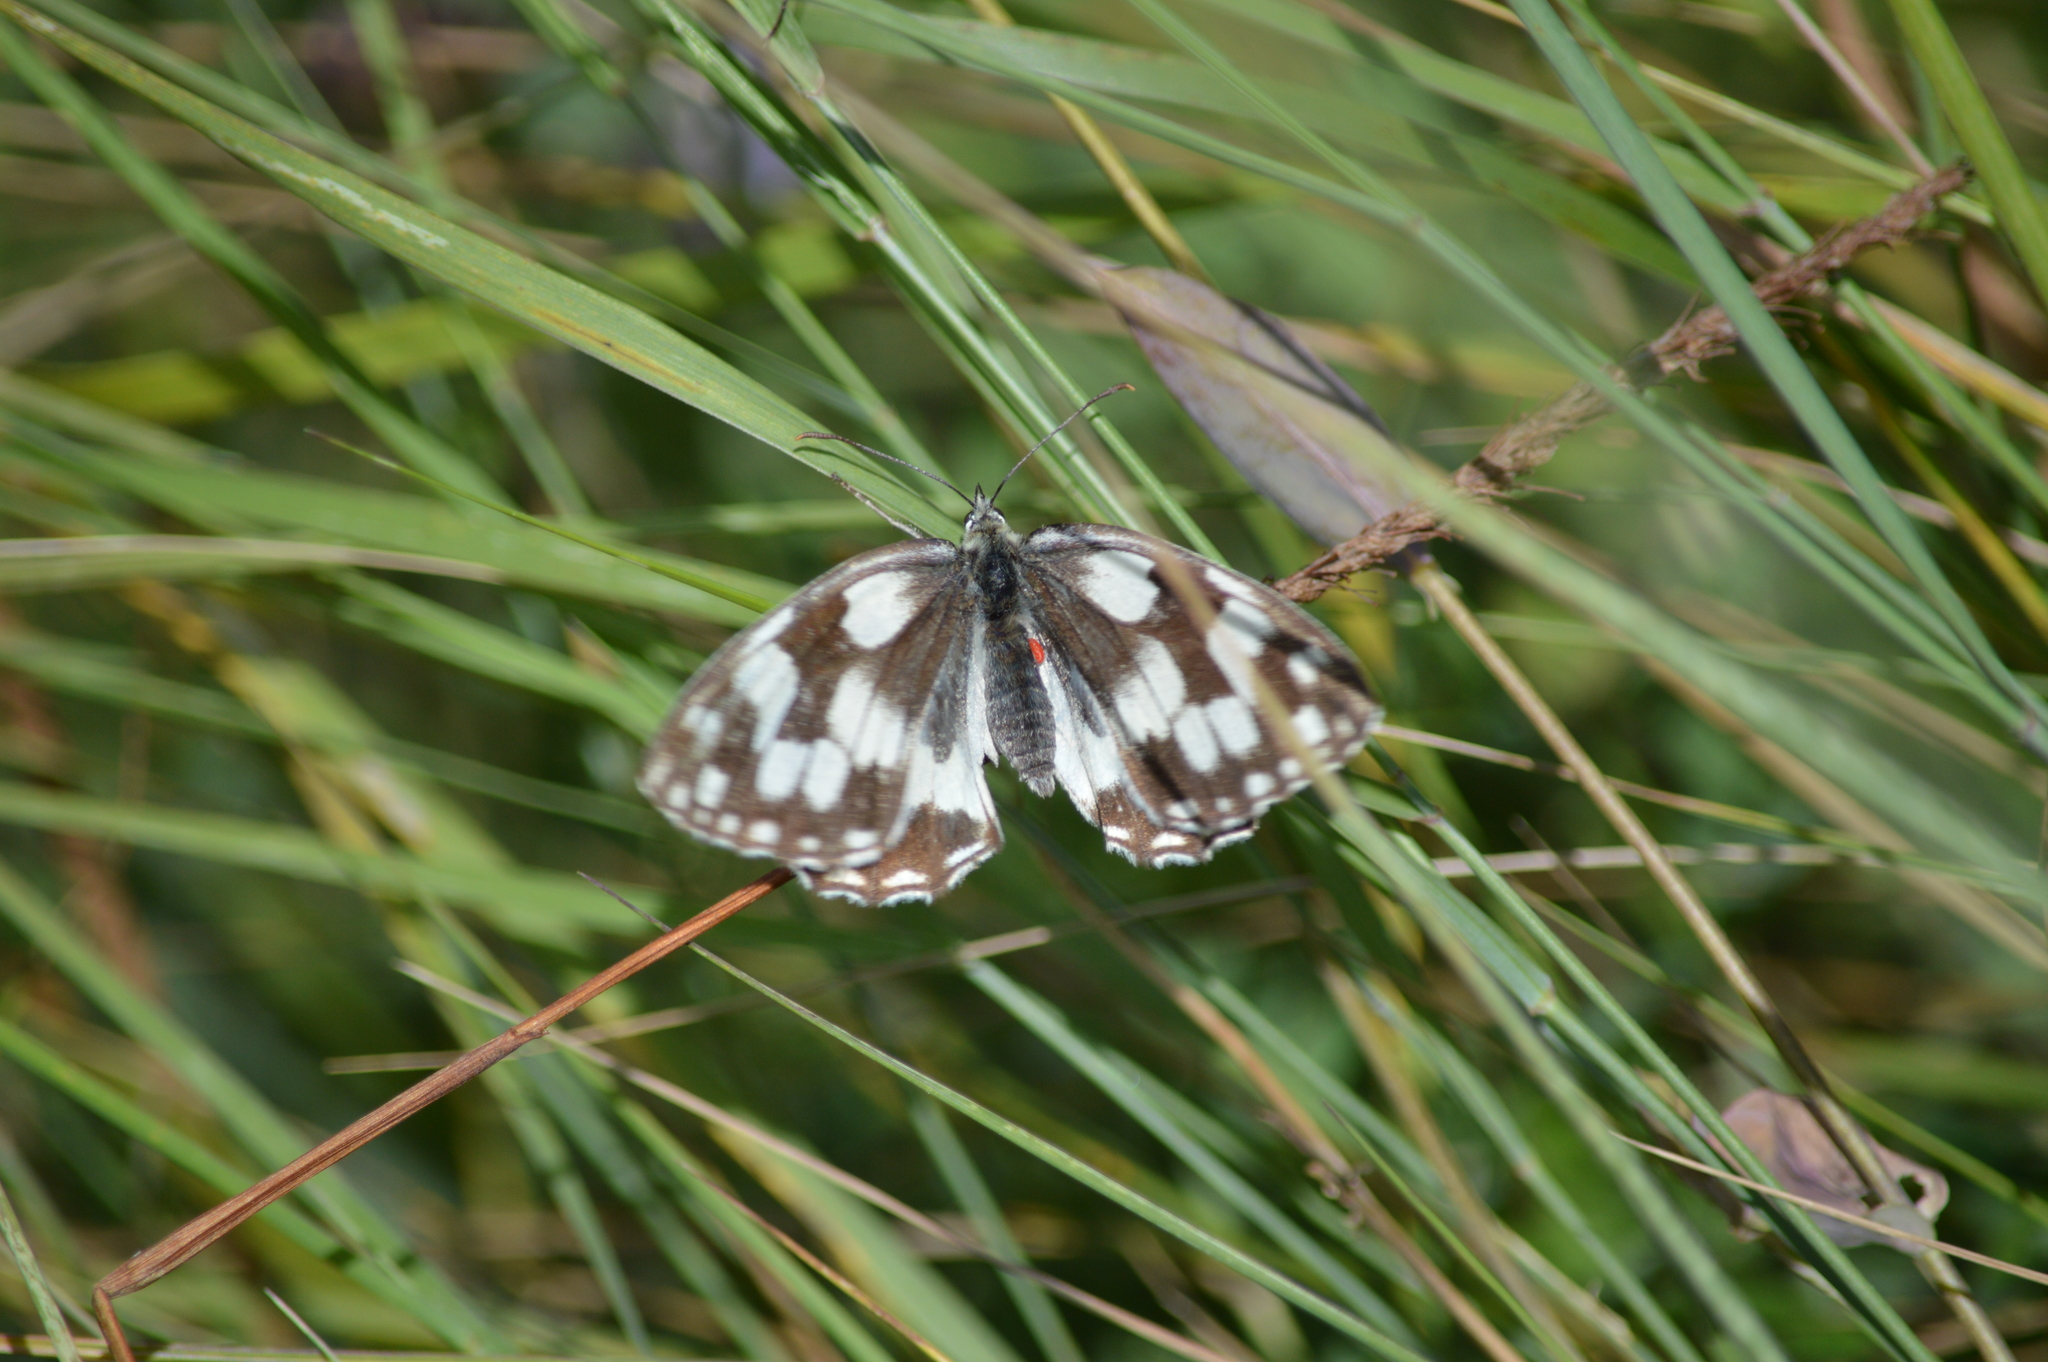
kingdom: Animalia
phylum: Arthropoda
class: Insecta
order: Lepidoptera
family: Nymphalidae
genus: Melanargia
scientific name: Melanargia galathea
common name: Marbled white
